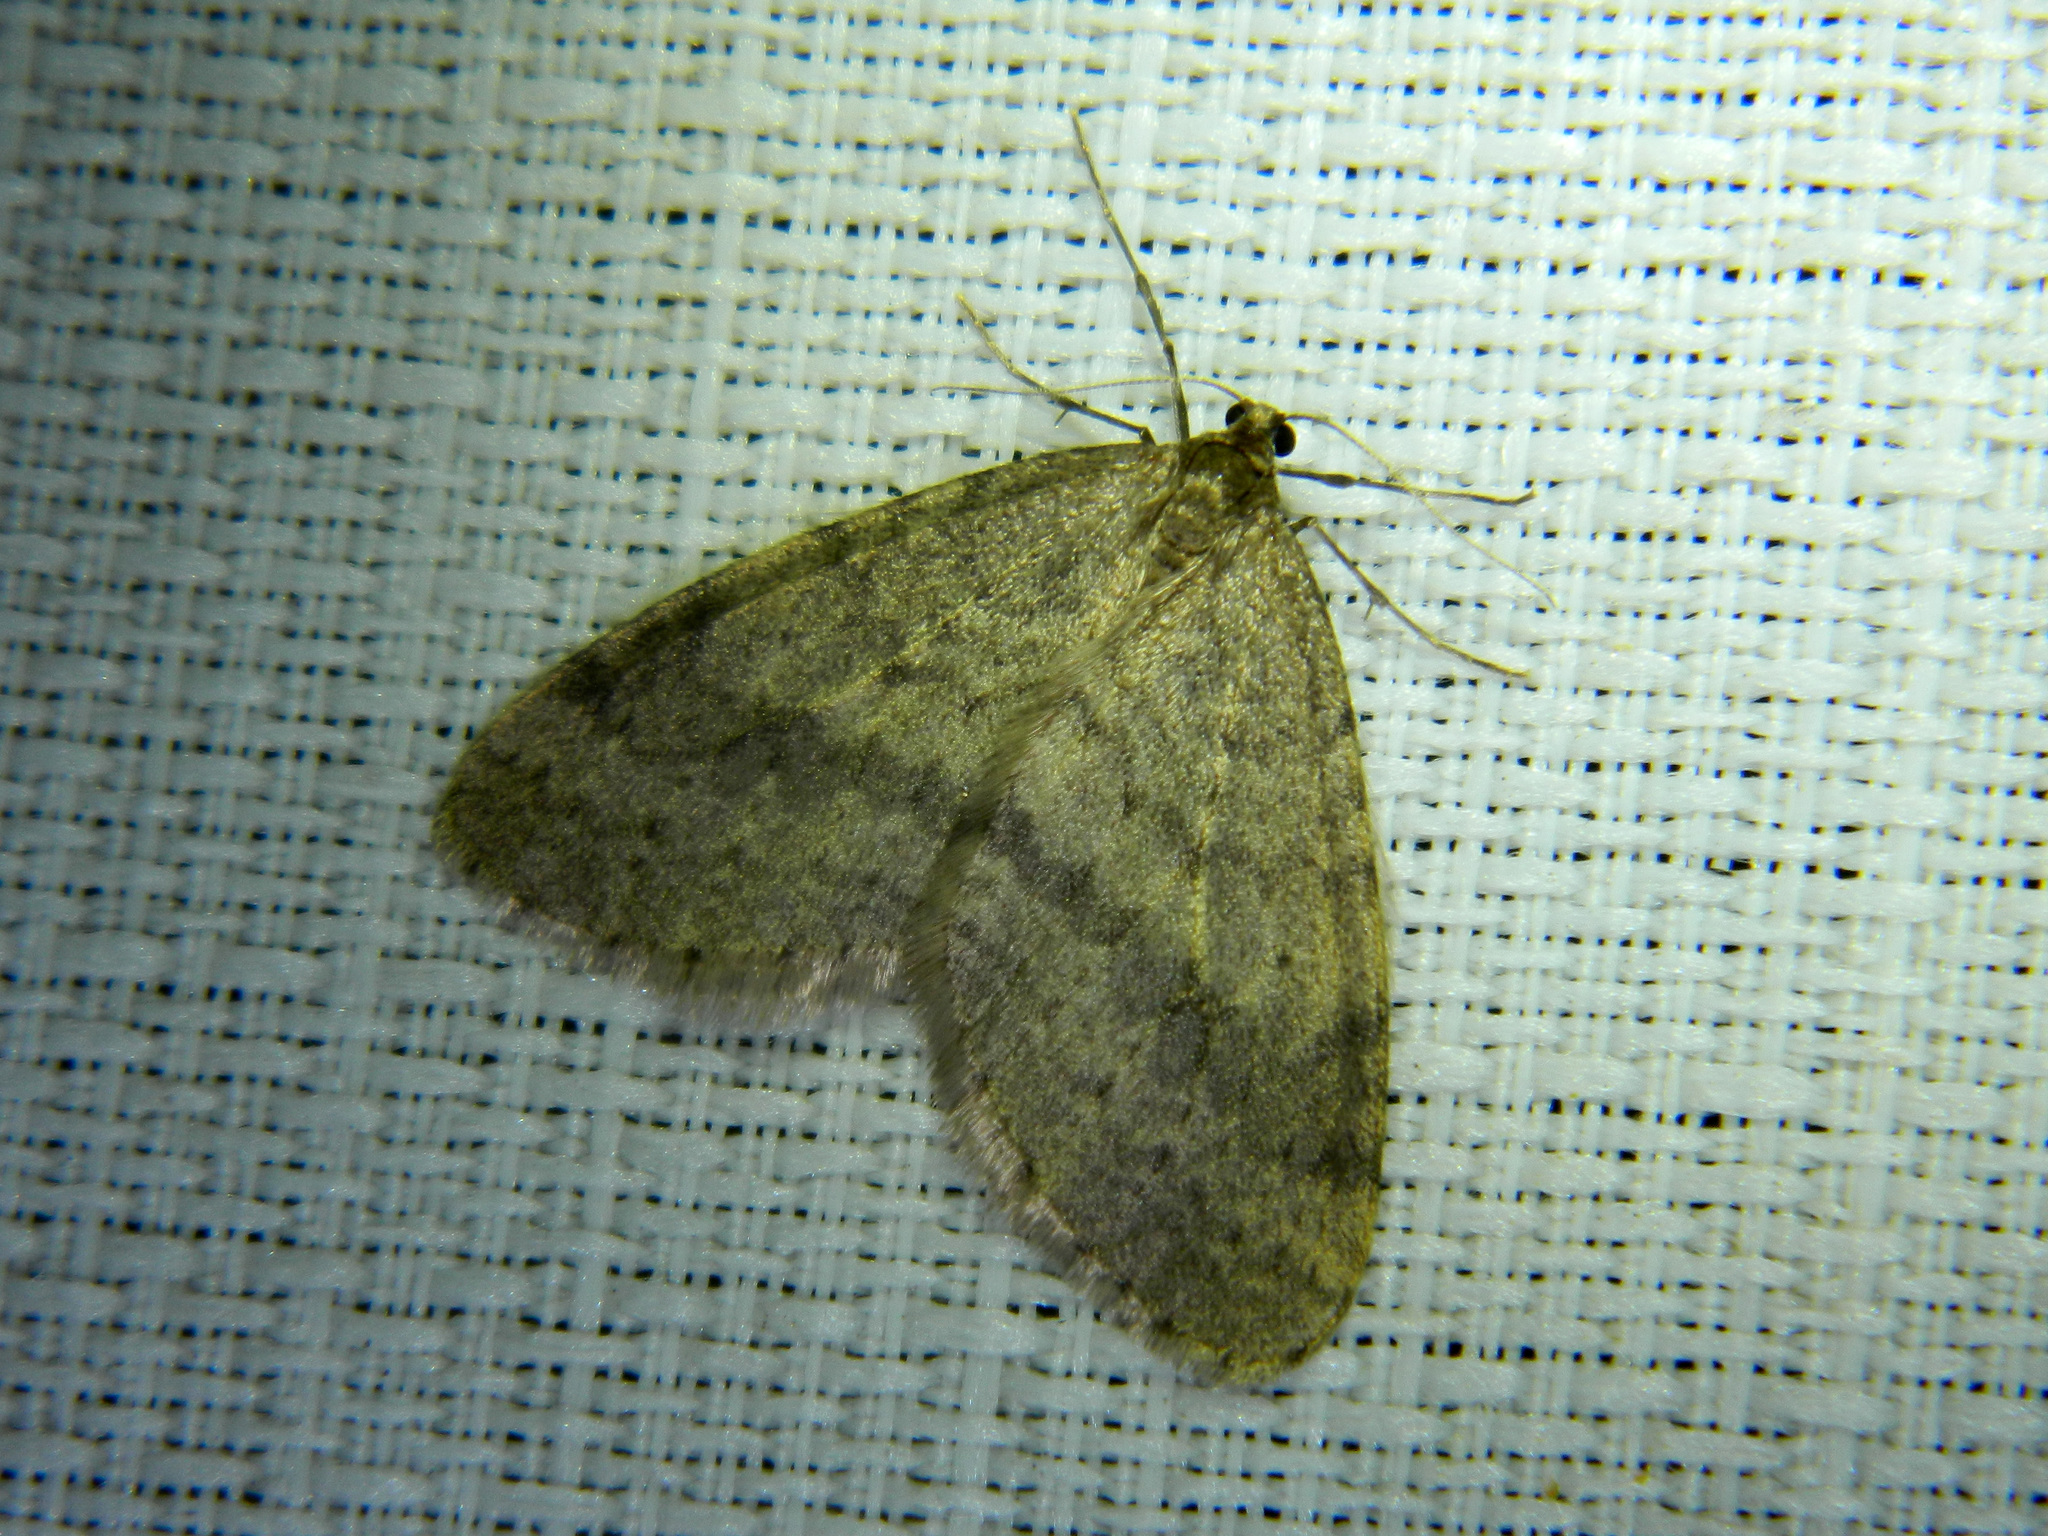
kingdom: Animalia
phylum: Arthropoda
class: Insecta
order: Lepidoptera
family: Geometridae
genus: Operophtera
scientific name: Operophtera bruceata
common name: Bruce spanworm
